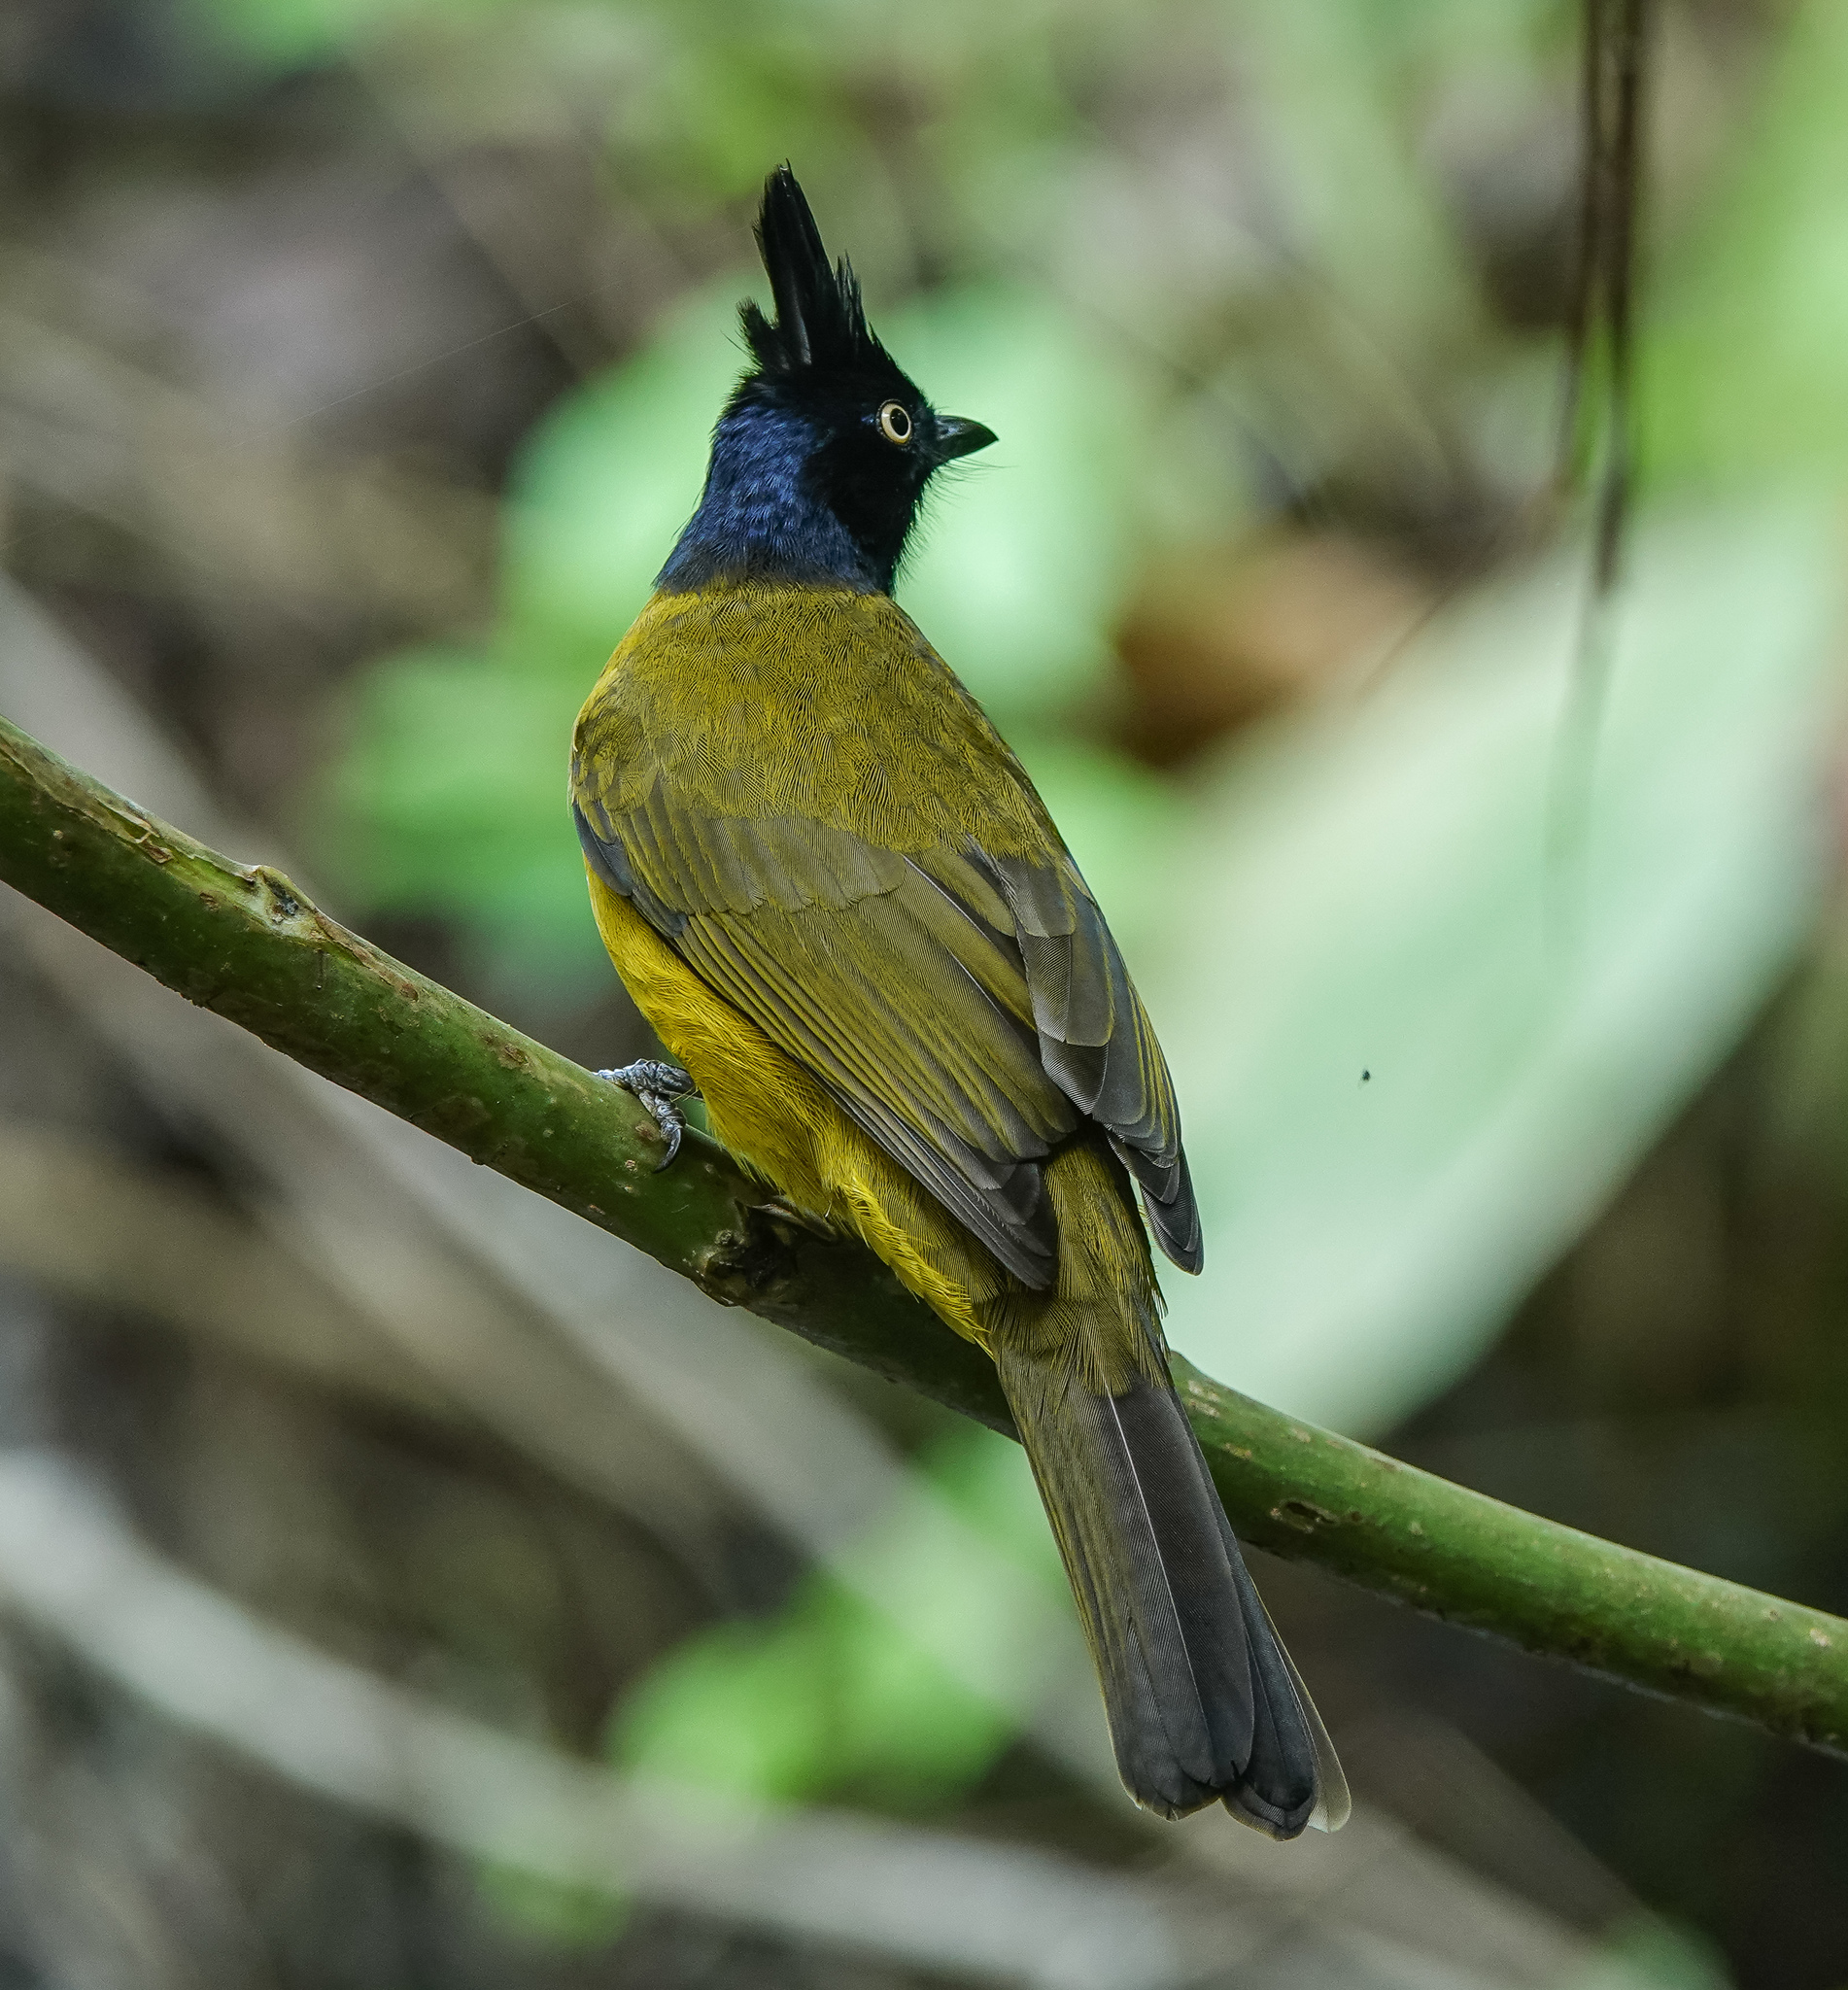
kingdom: Animalia
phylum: Chordata
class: Aves
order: Passeriformes
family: Pycnonotidae
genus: Pycnonotus
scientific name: Pycnonotus flaviventris
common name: Black-crested bulbul
